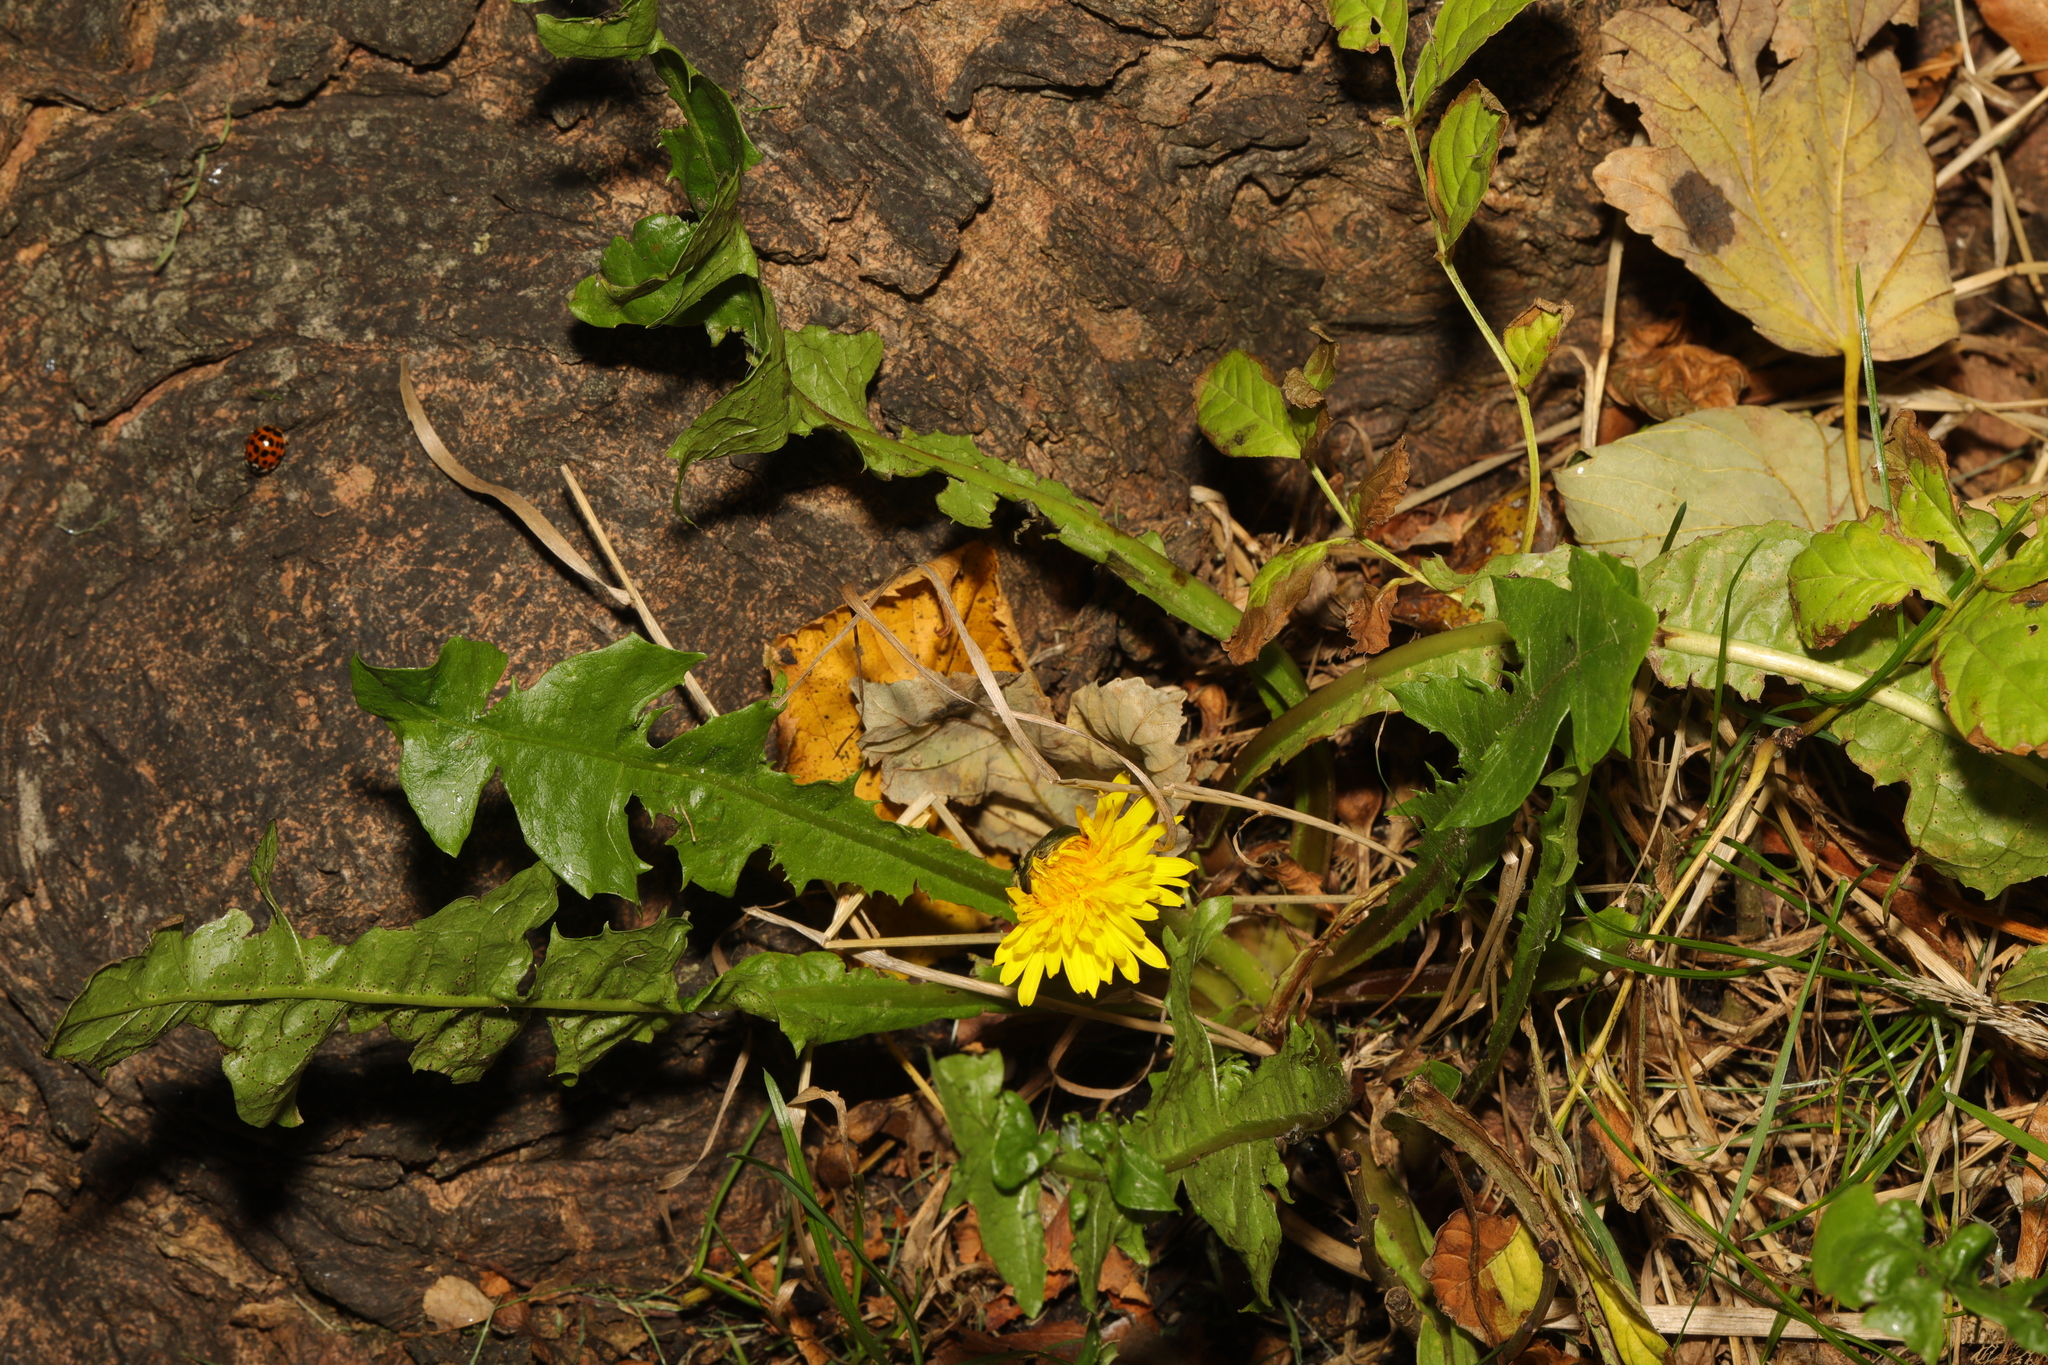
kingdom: Plantae
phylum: Tracheophyta
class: Magnoliopsida
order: Asterales
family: Asteraceae
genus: Taraxacum
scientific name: Taraxacum officinale
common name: Common dandelion
